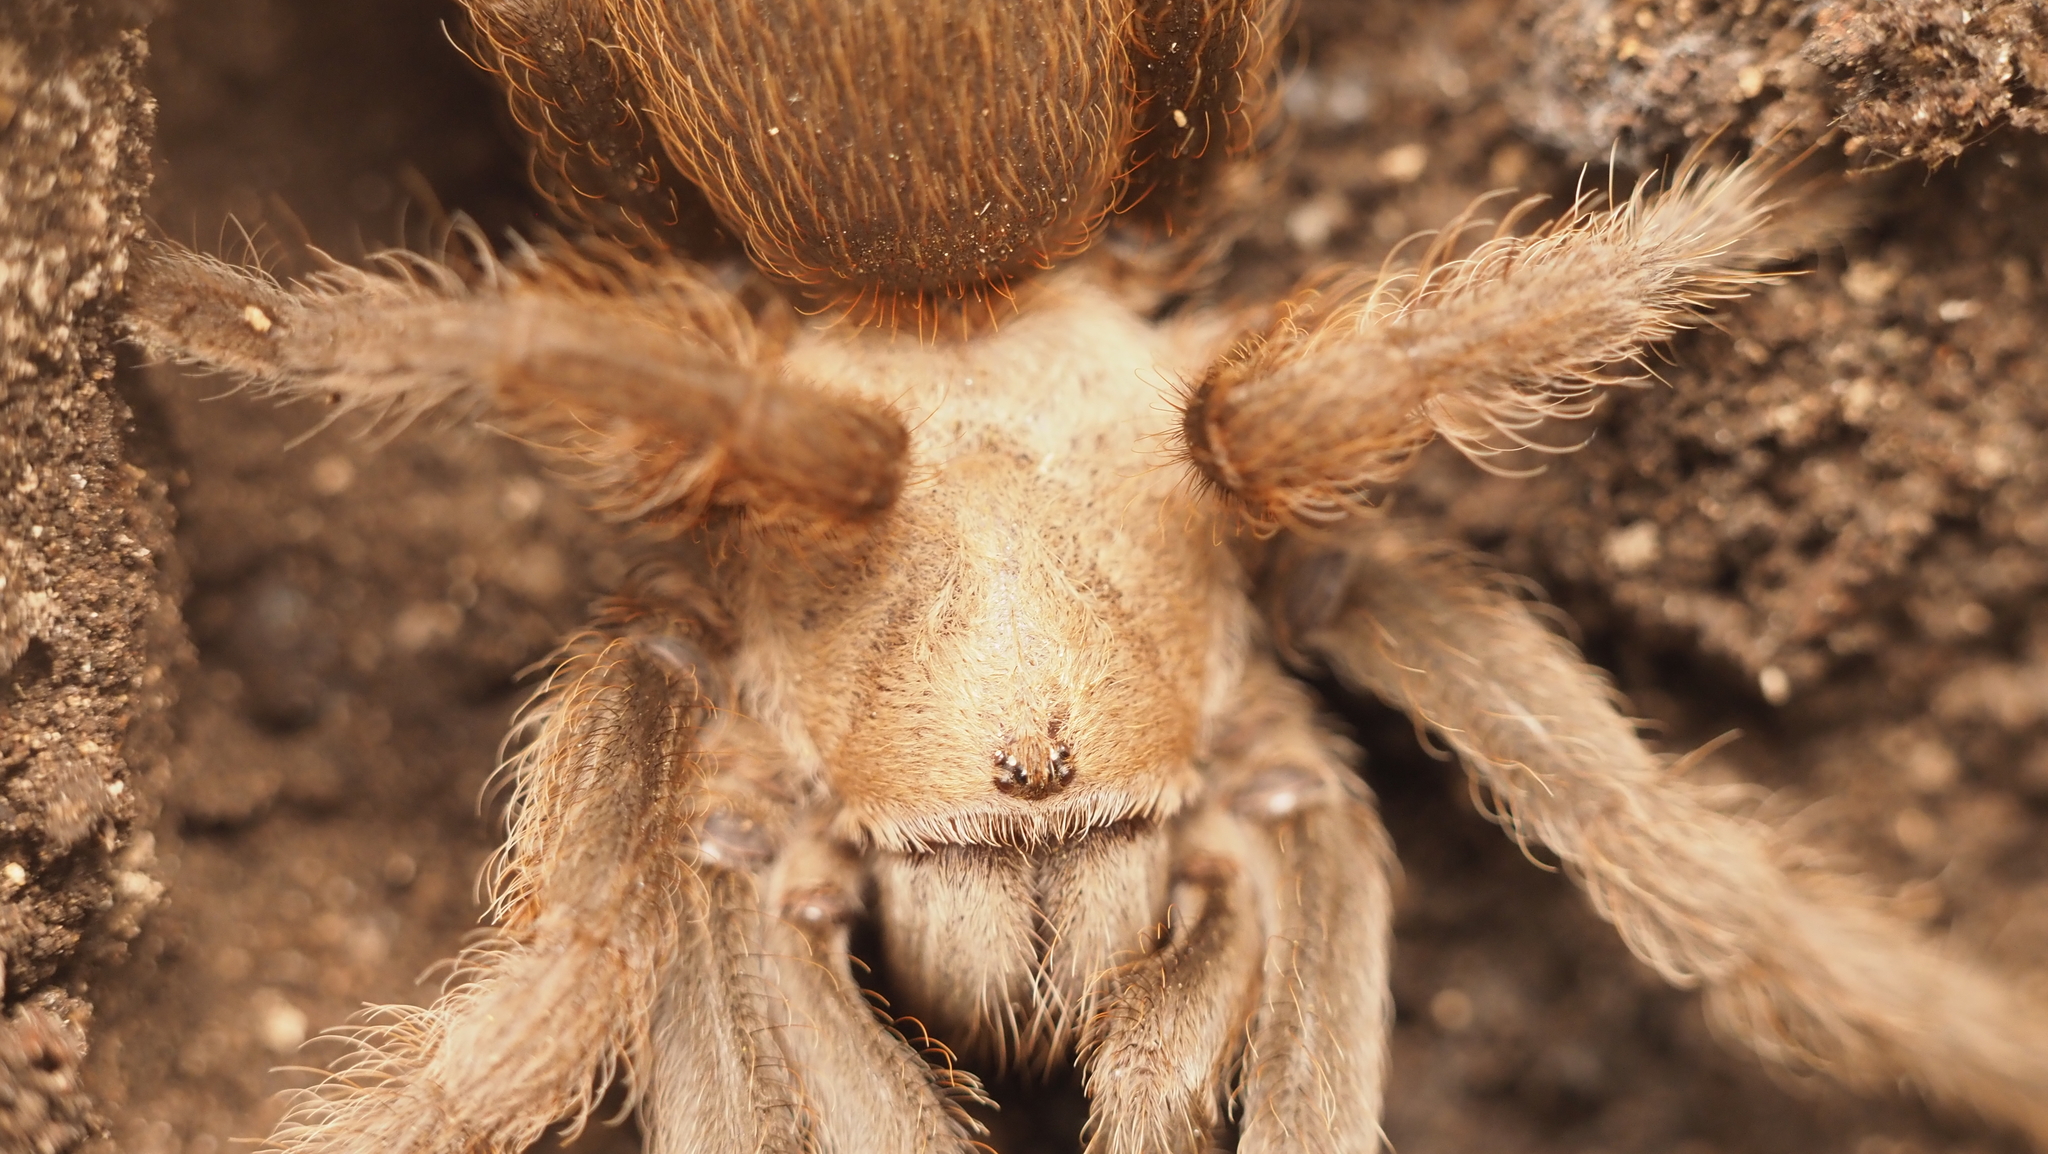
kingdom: Animalia
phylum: Arthropoda
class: Arachnida
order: Araneae
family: Theraphosidae
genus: Aphonopelma
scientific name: Aphonopelma hentzi
